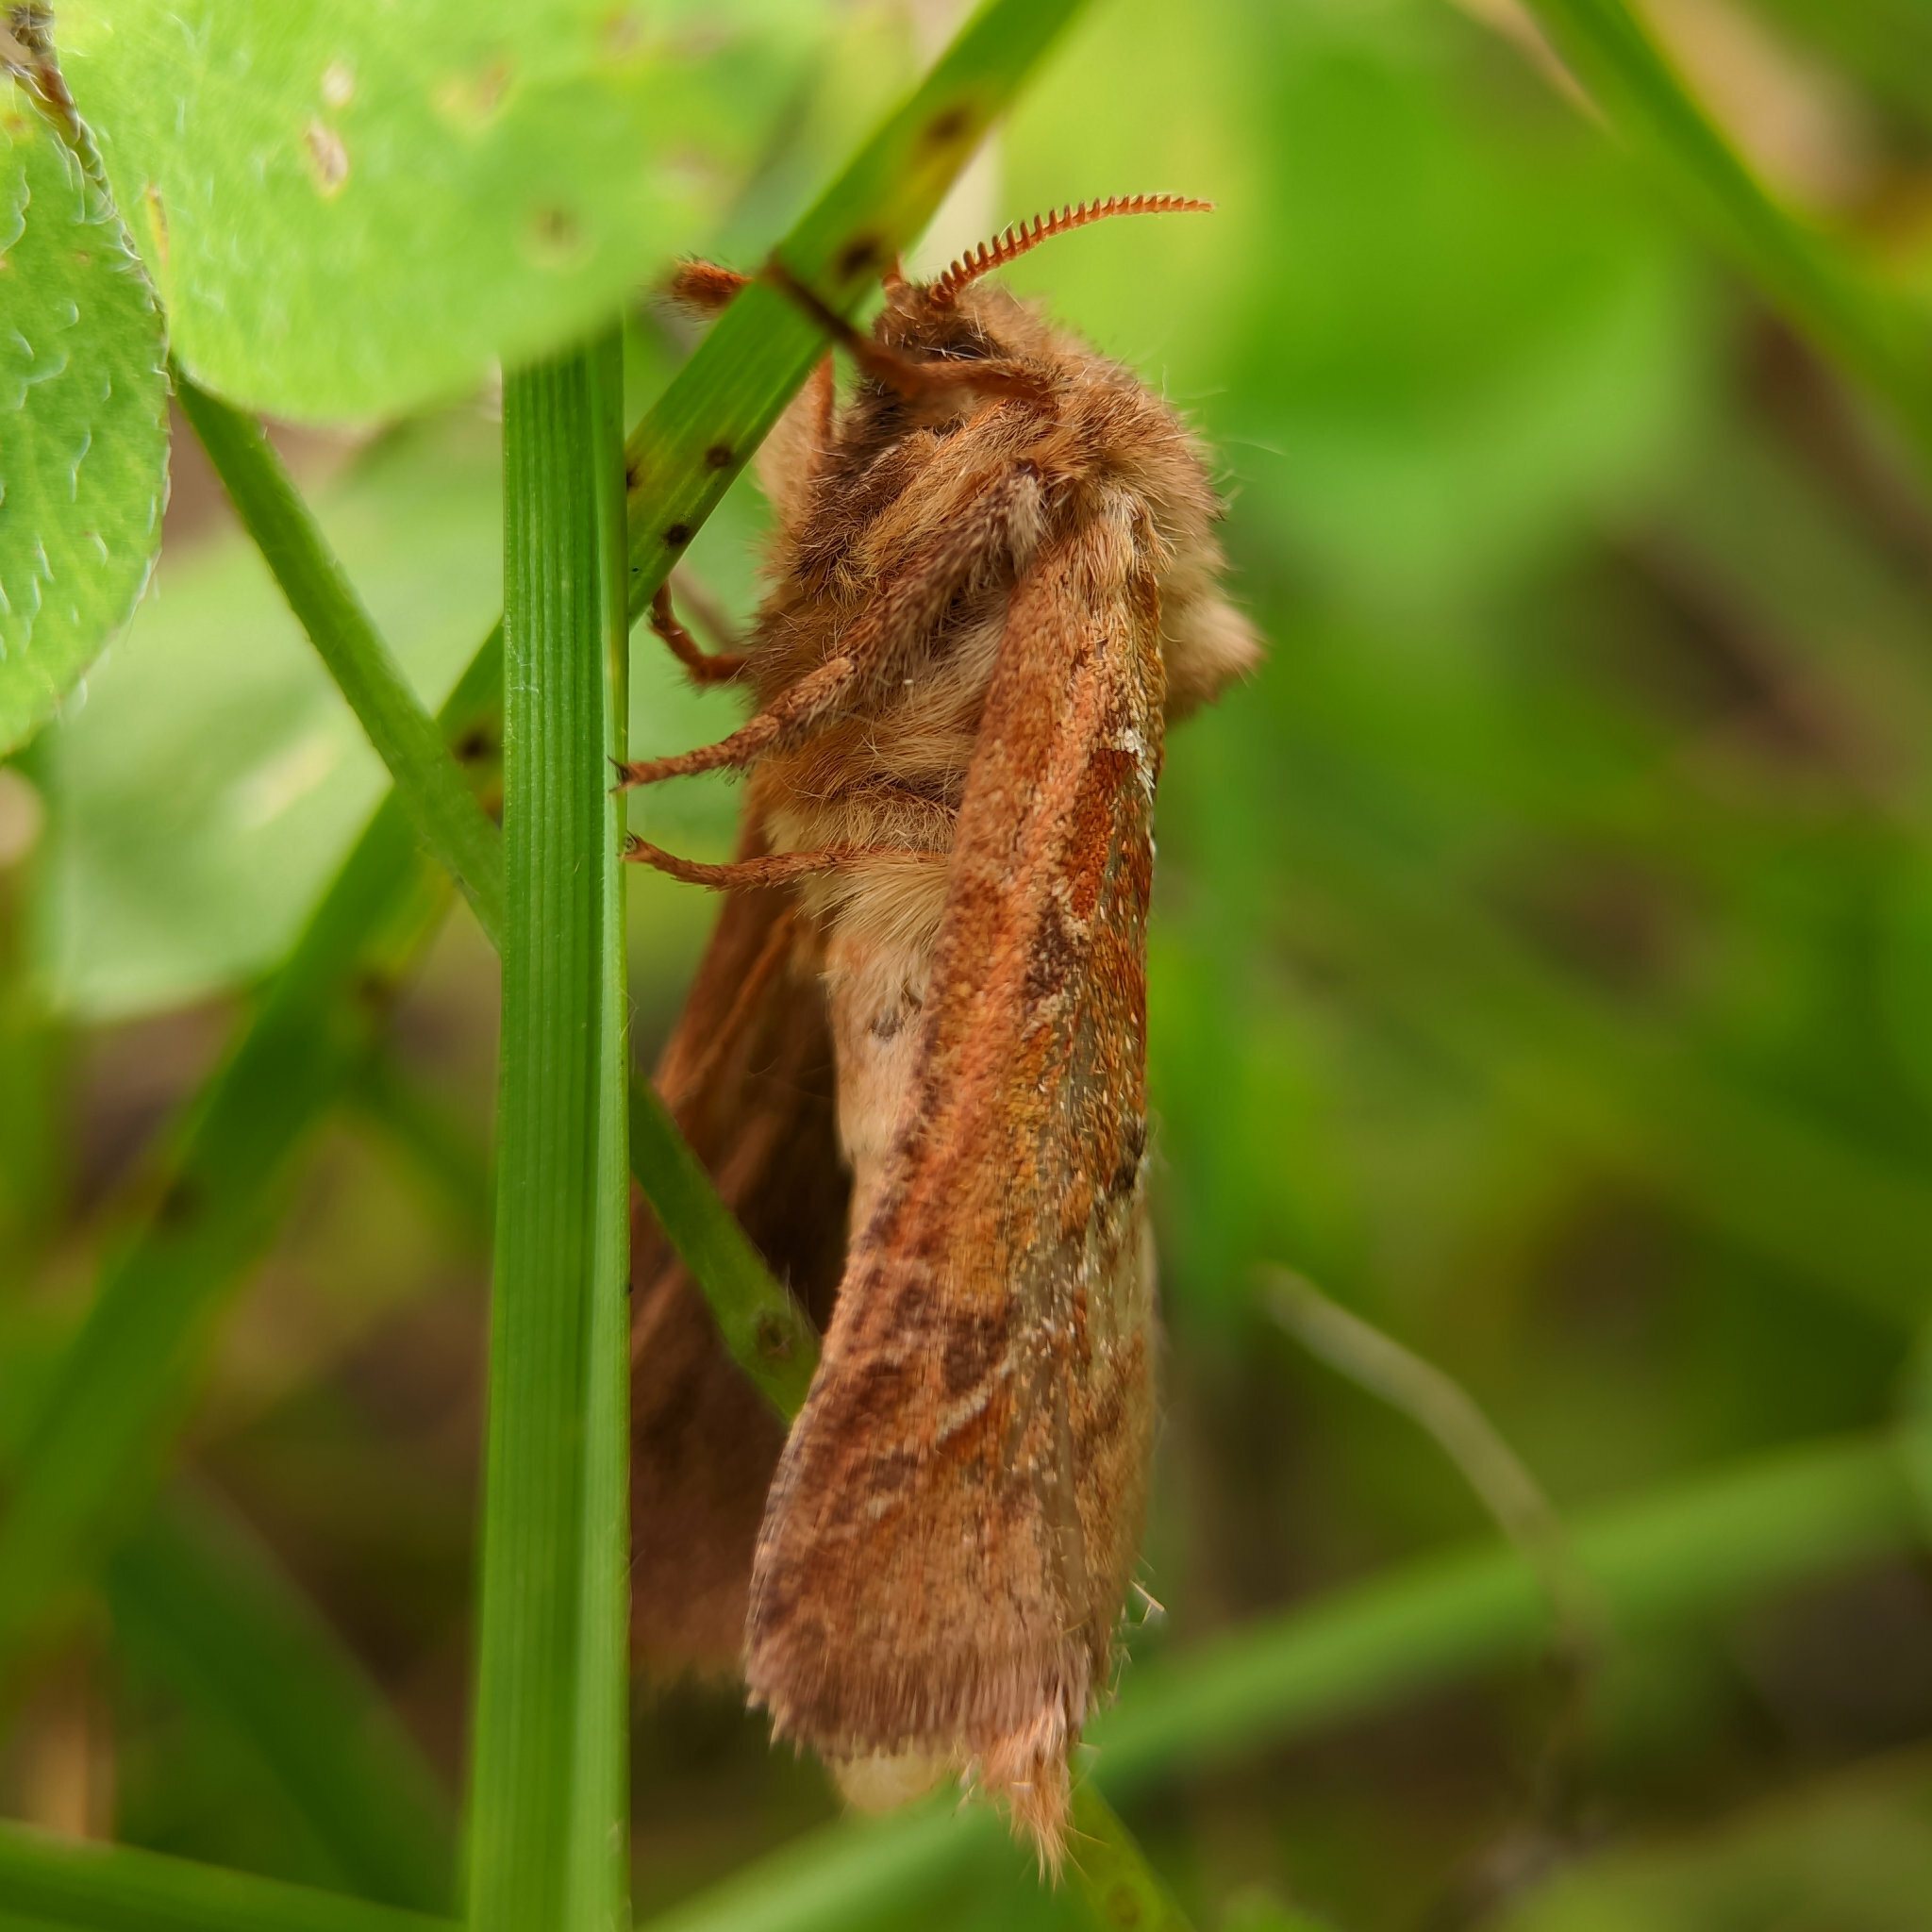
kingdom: Animalia
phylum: Arthropoda
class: Insecta
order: Lepidoptera
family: Hepialidae
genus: Triodia
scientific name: Triodia sylvina
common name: Orange swift
